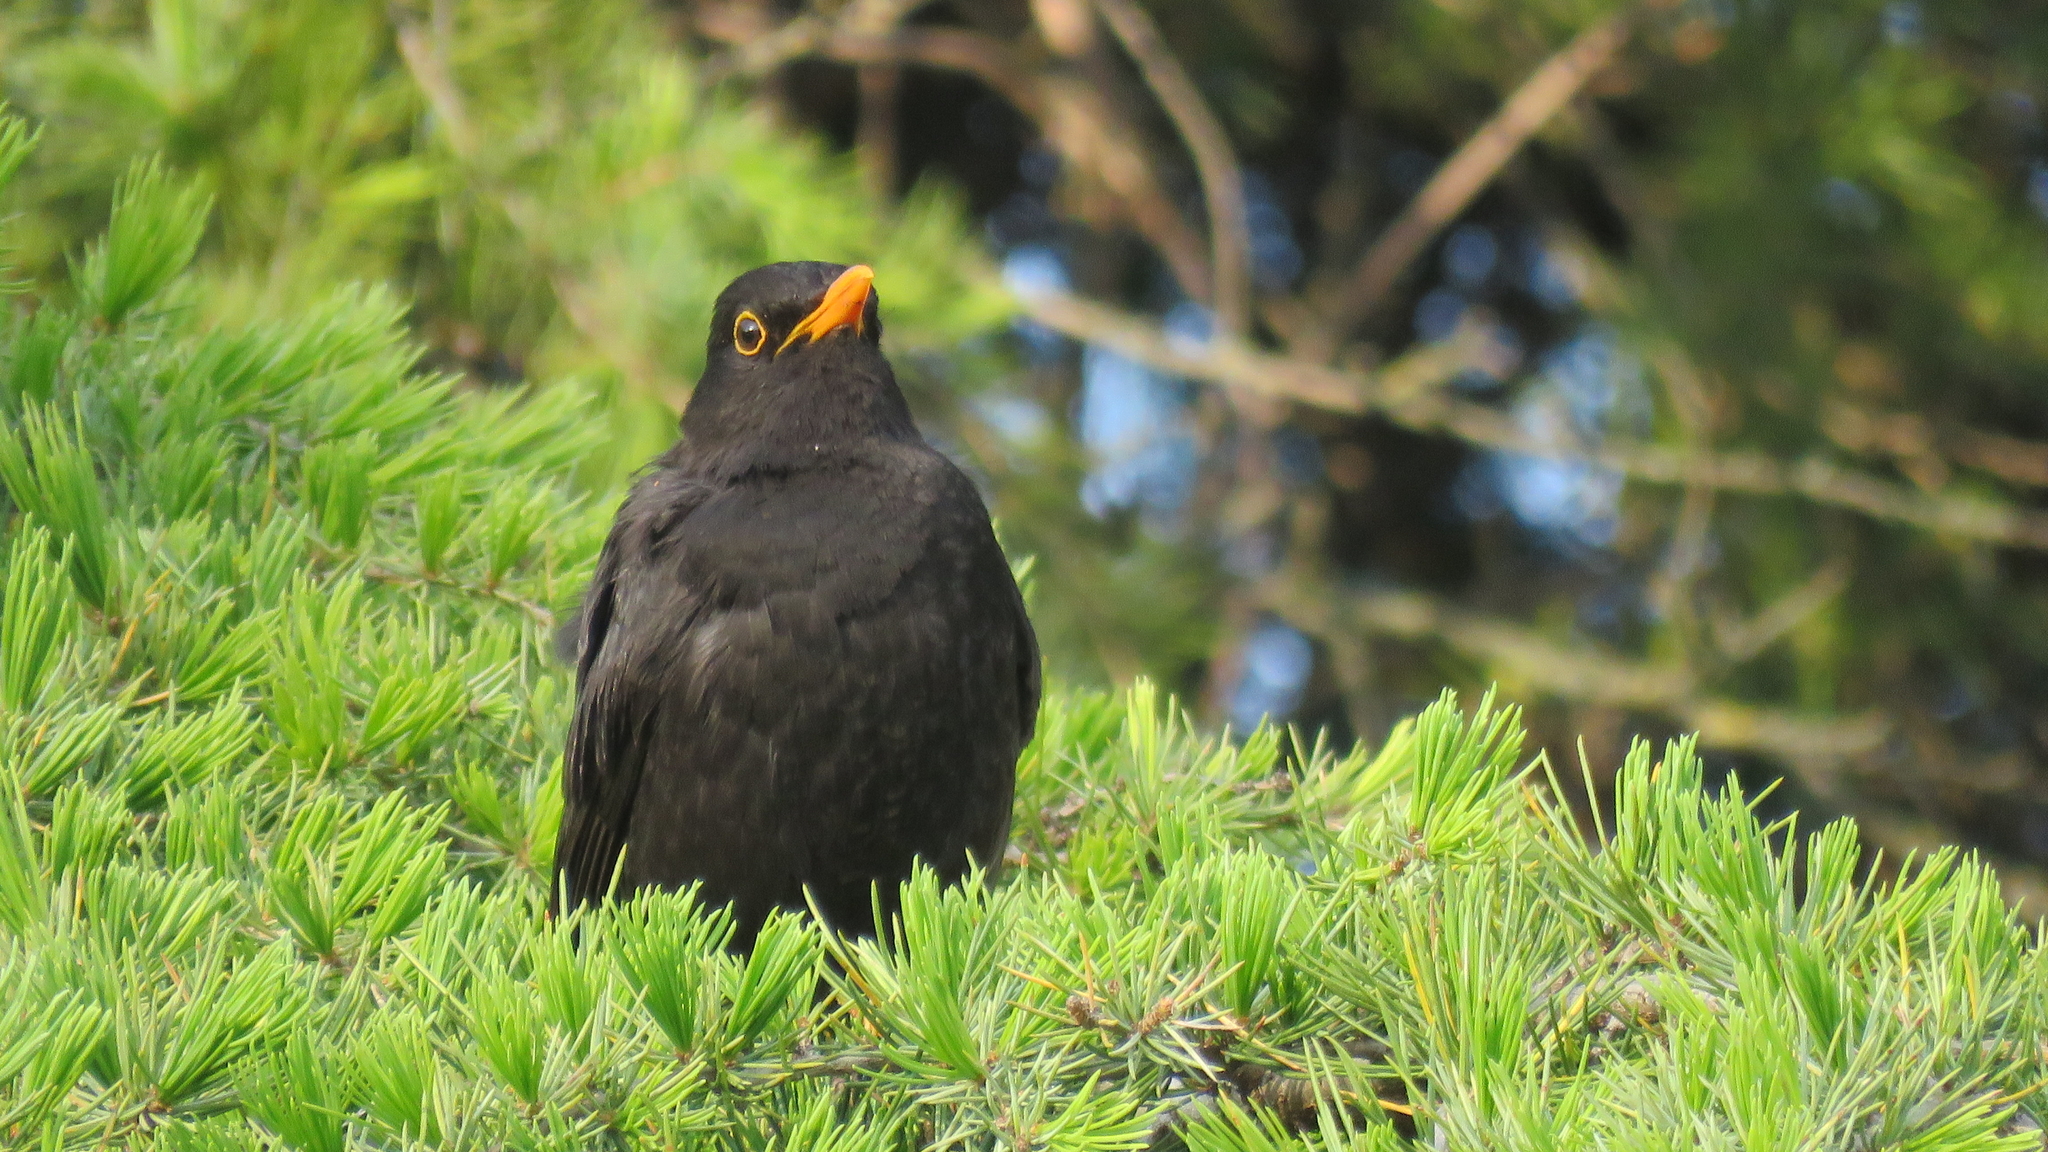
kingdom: Animalia
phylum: Chordata
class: Aves
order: Passeriformes
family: Turdidae
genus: Turdus
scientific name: Turdus merula
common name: Common blackbird
